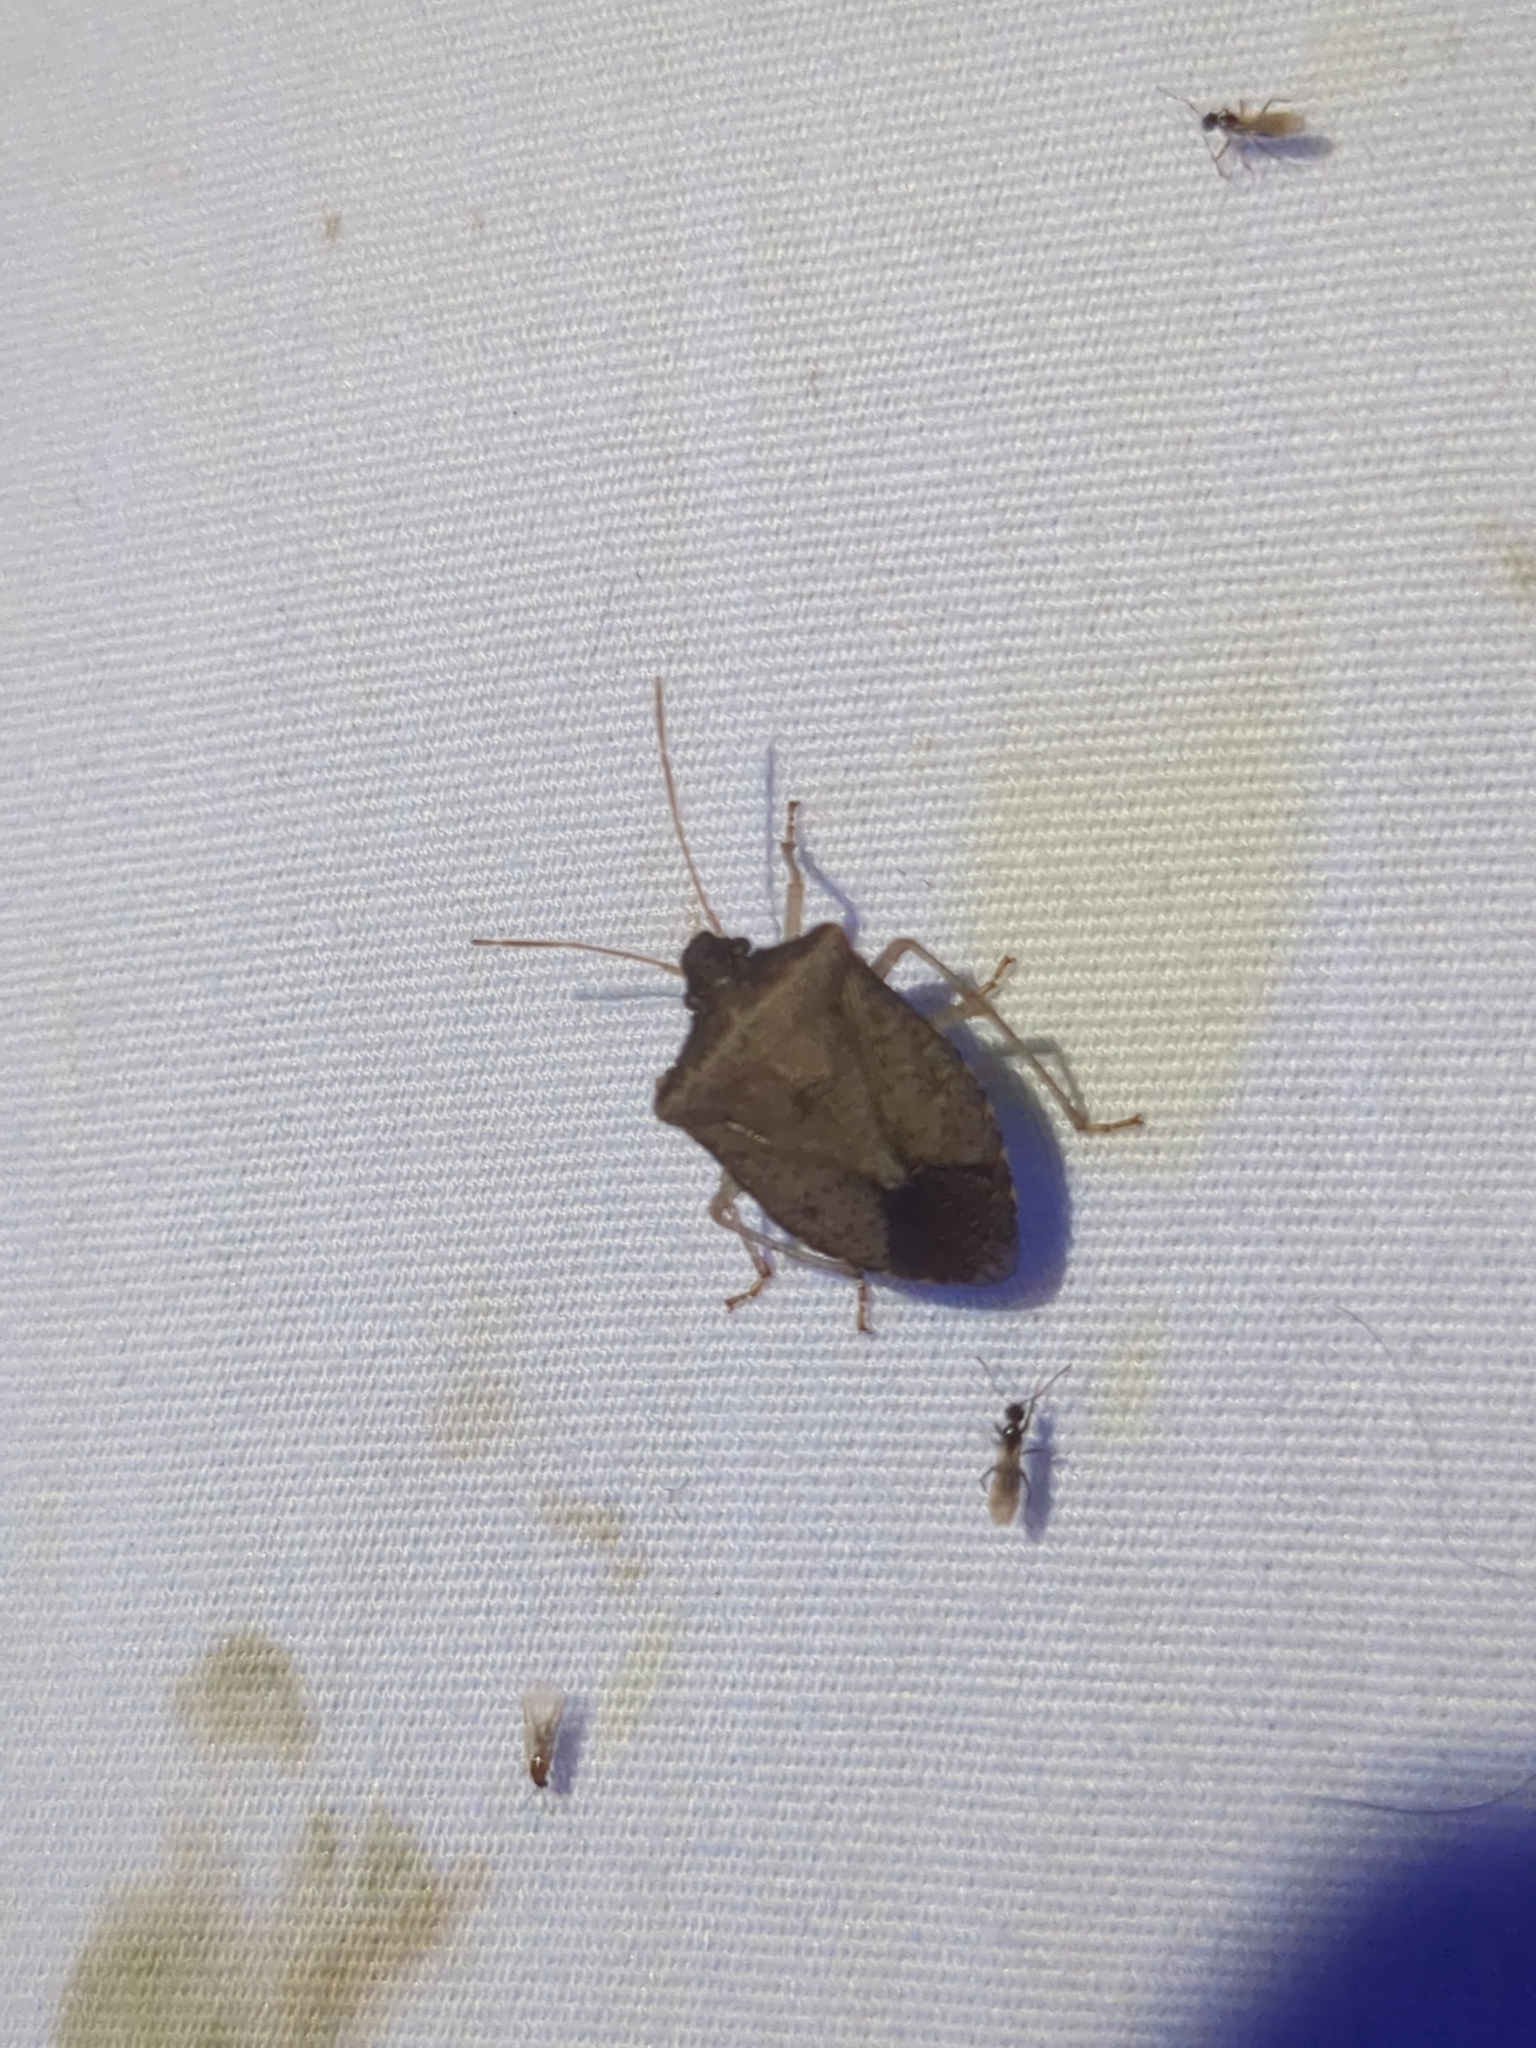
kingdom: Animalia
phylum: Arthropoda
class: Insecta
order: Hemiptera
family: Pentatomidae
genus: Euschistus
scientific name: Euschistus obscurus
